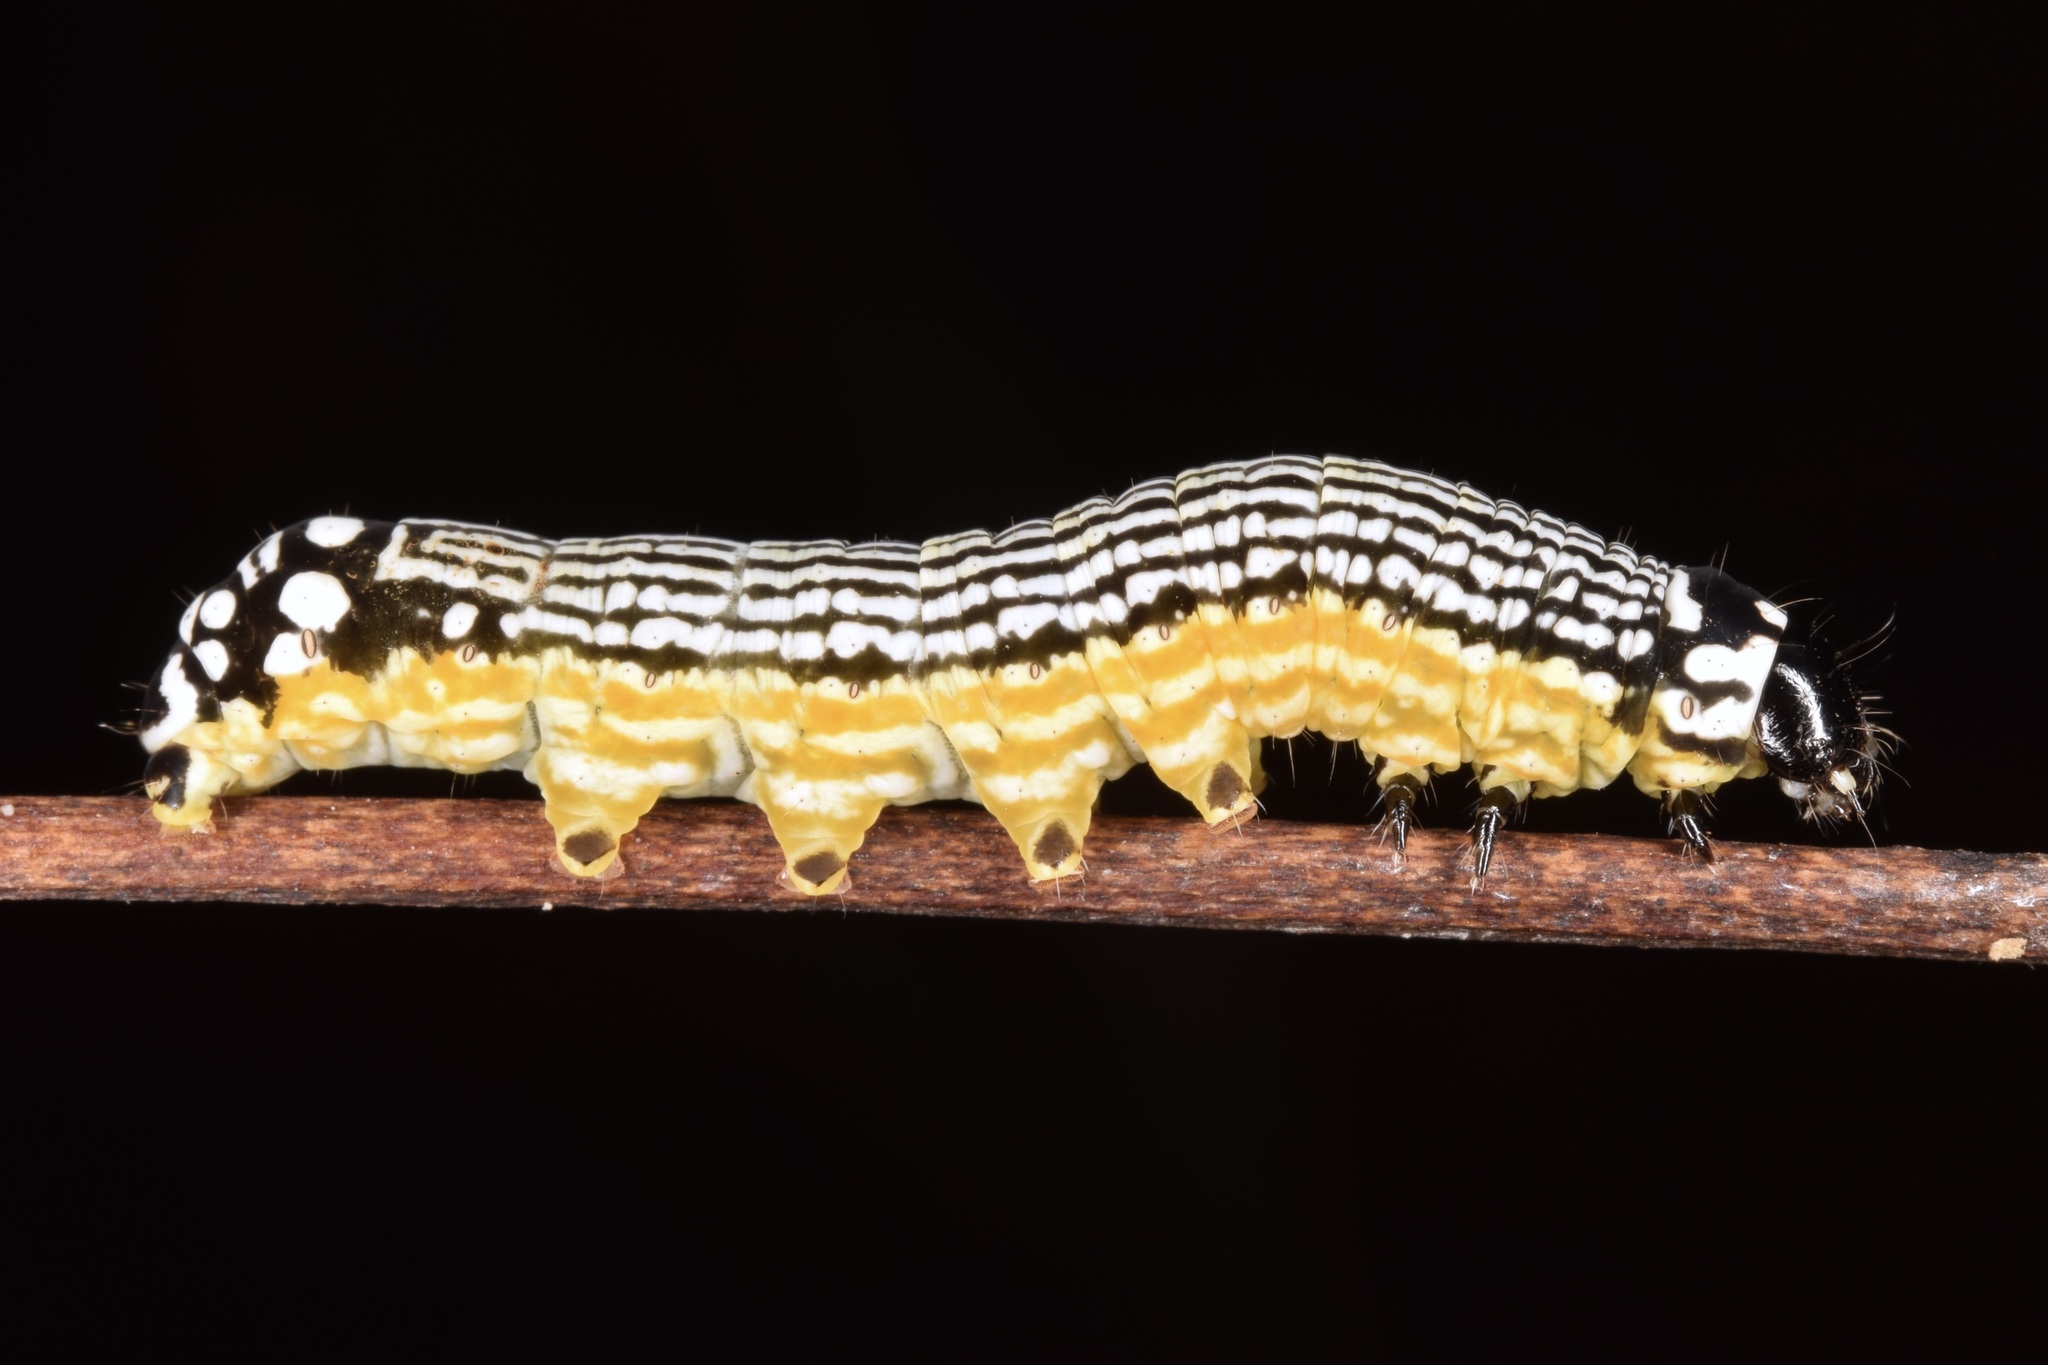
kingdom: Animalia
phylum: Arthropoda
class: Insecta
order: Lepidoptera
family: Noctuidae
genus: Phosphila
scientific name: Phosphila turbulenta
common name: Turbulent phosphila moth
